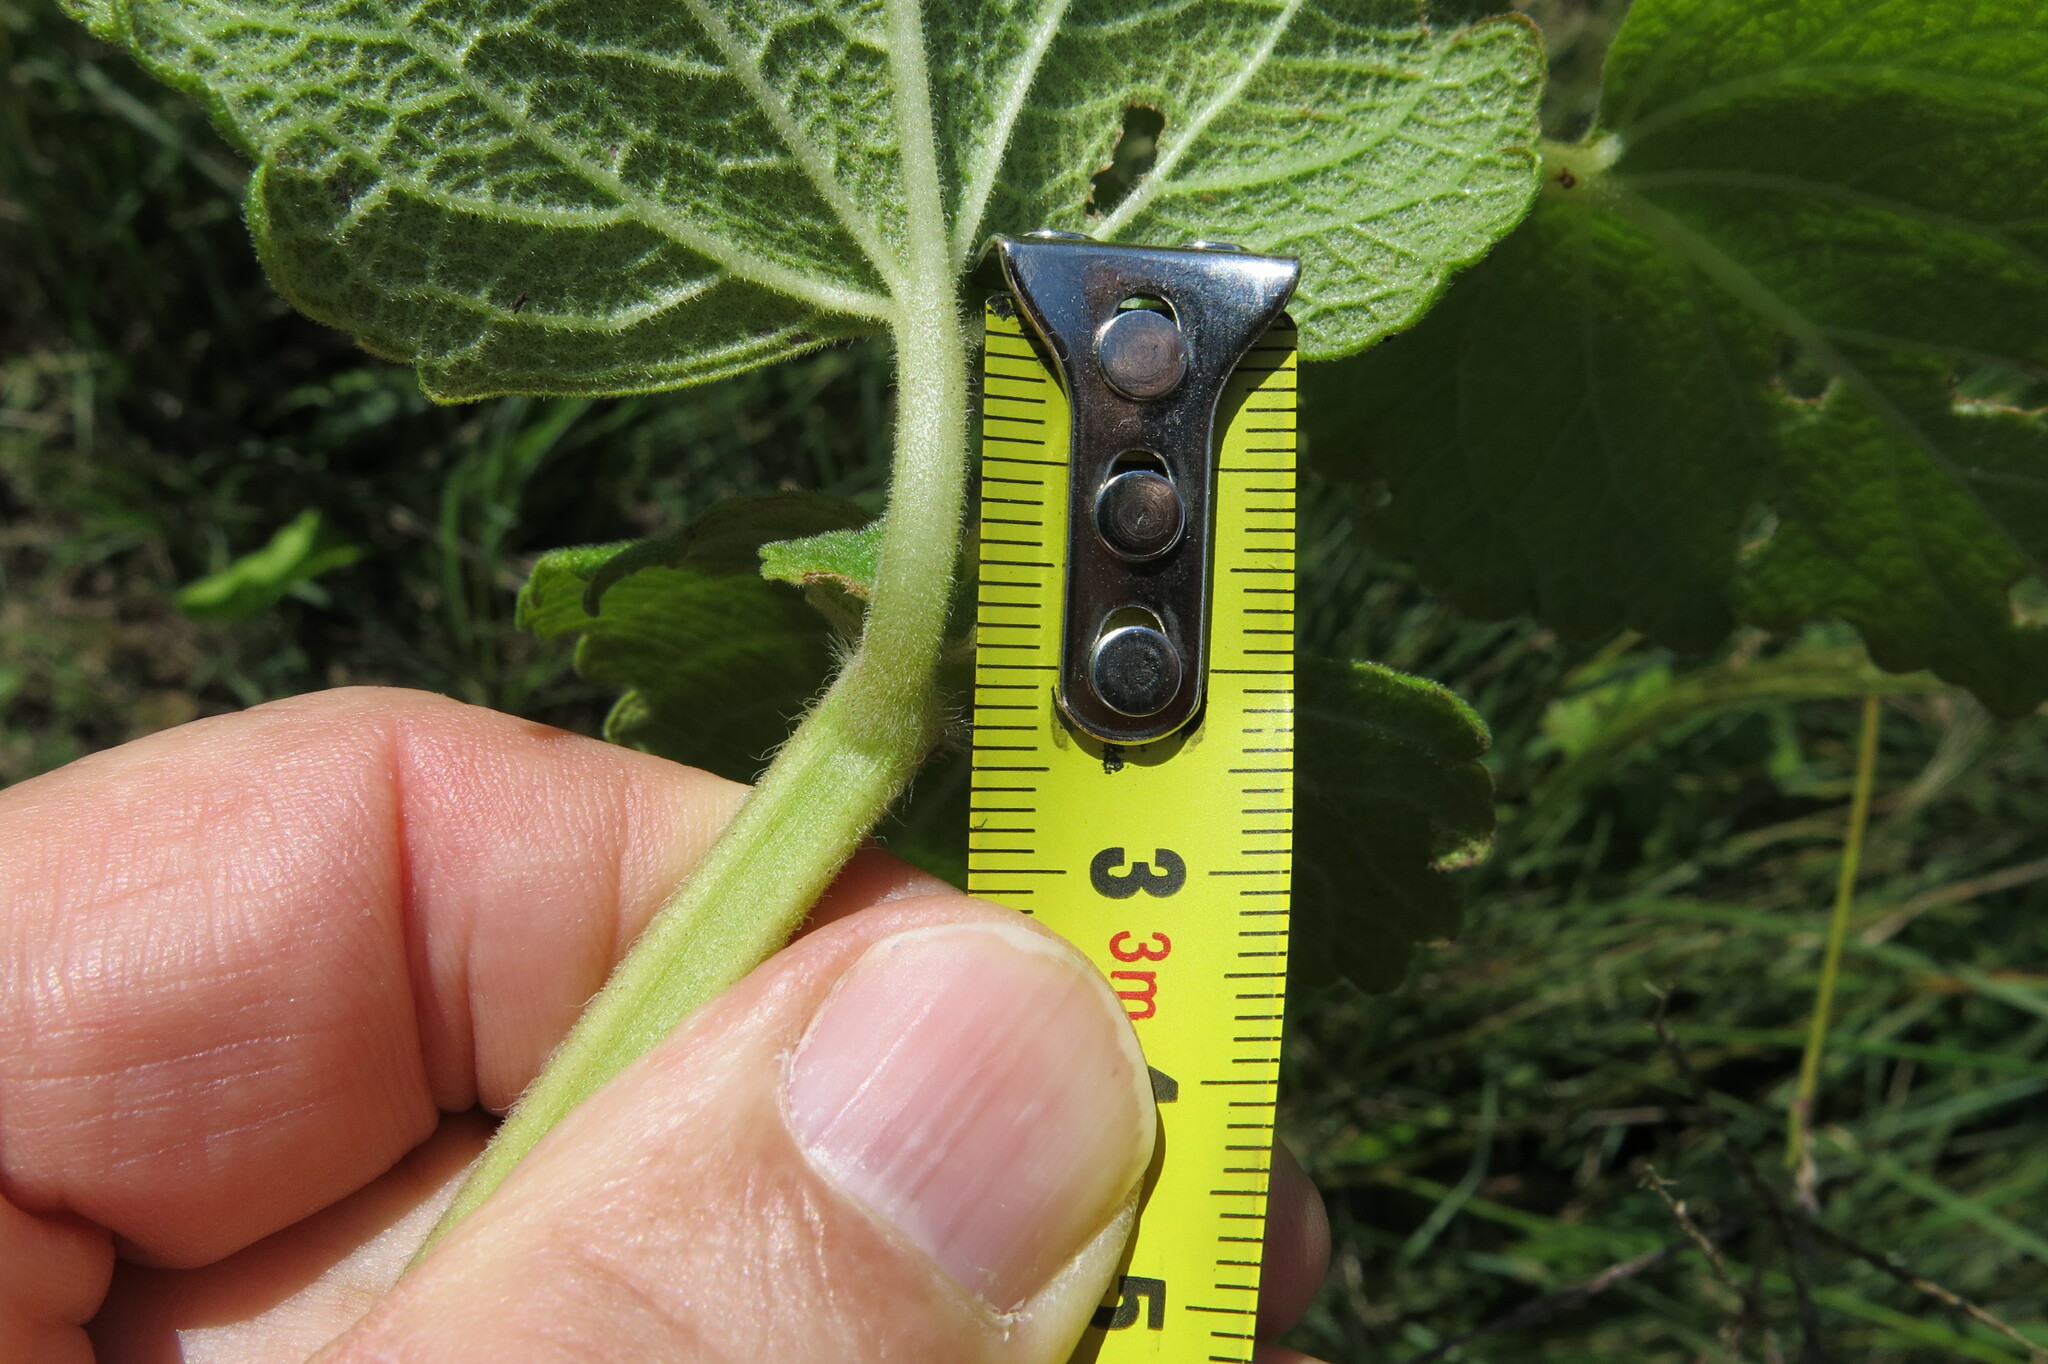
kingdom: Plantae
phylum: Tracheophyta
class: Magnoliopsida
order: Lamiales
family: Lamiaceae
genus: Equilabium
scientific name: Equilabium laxiflorum
